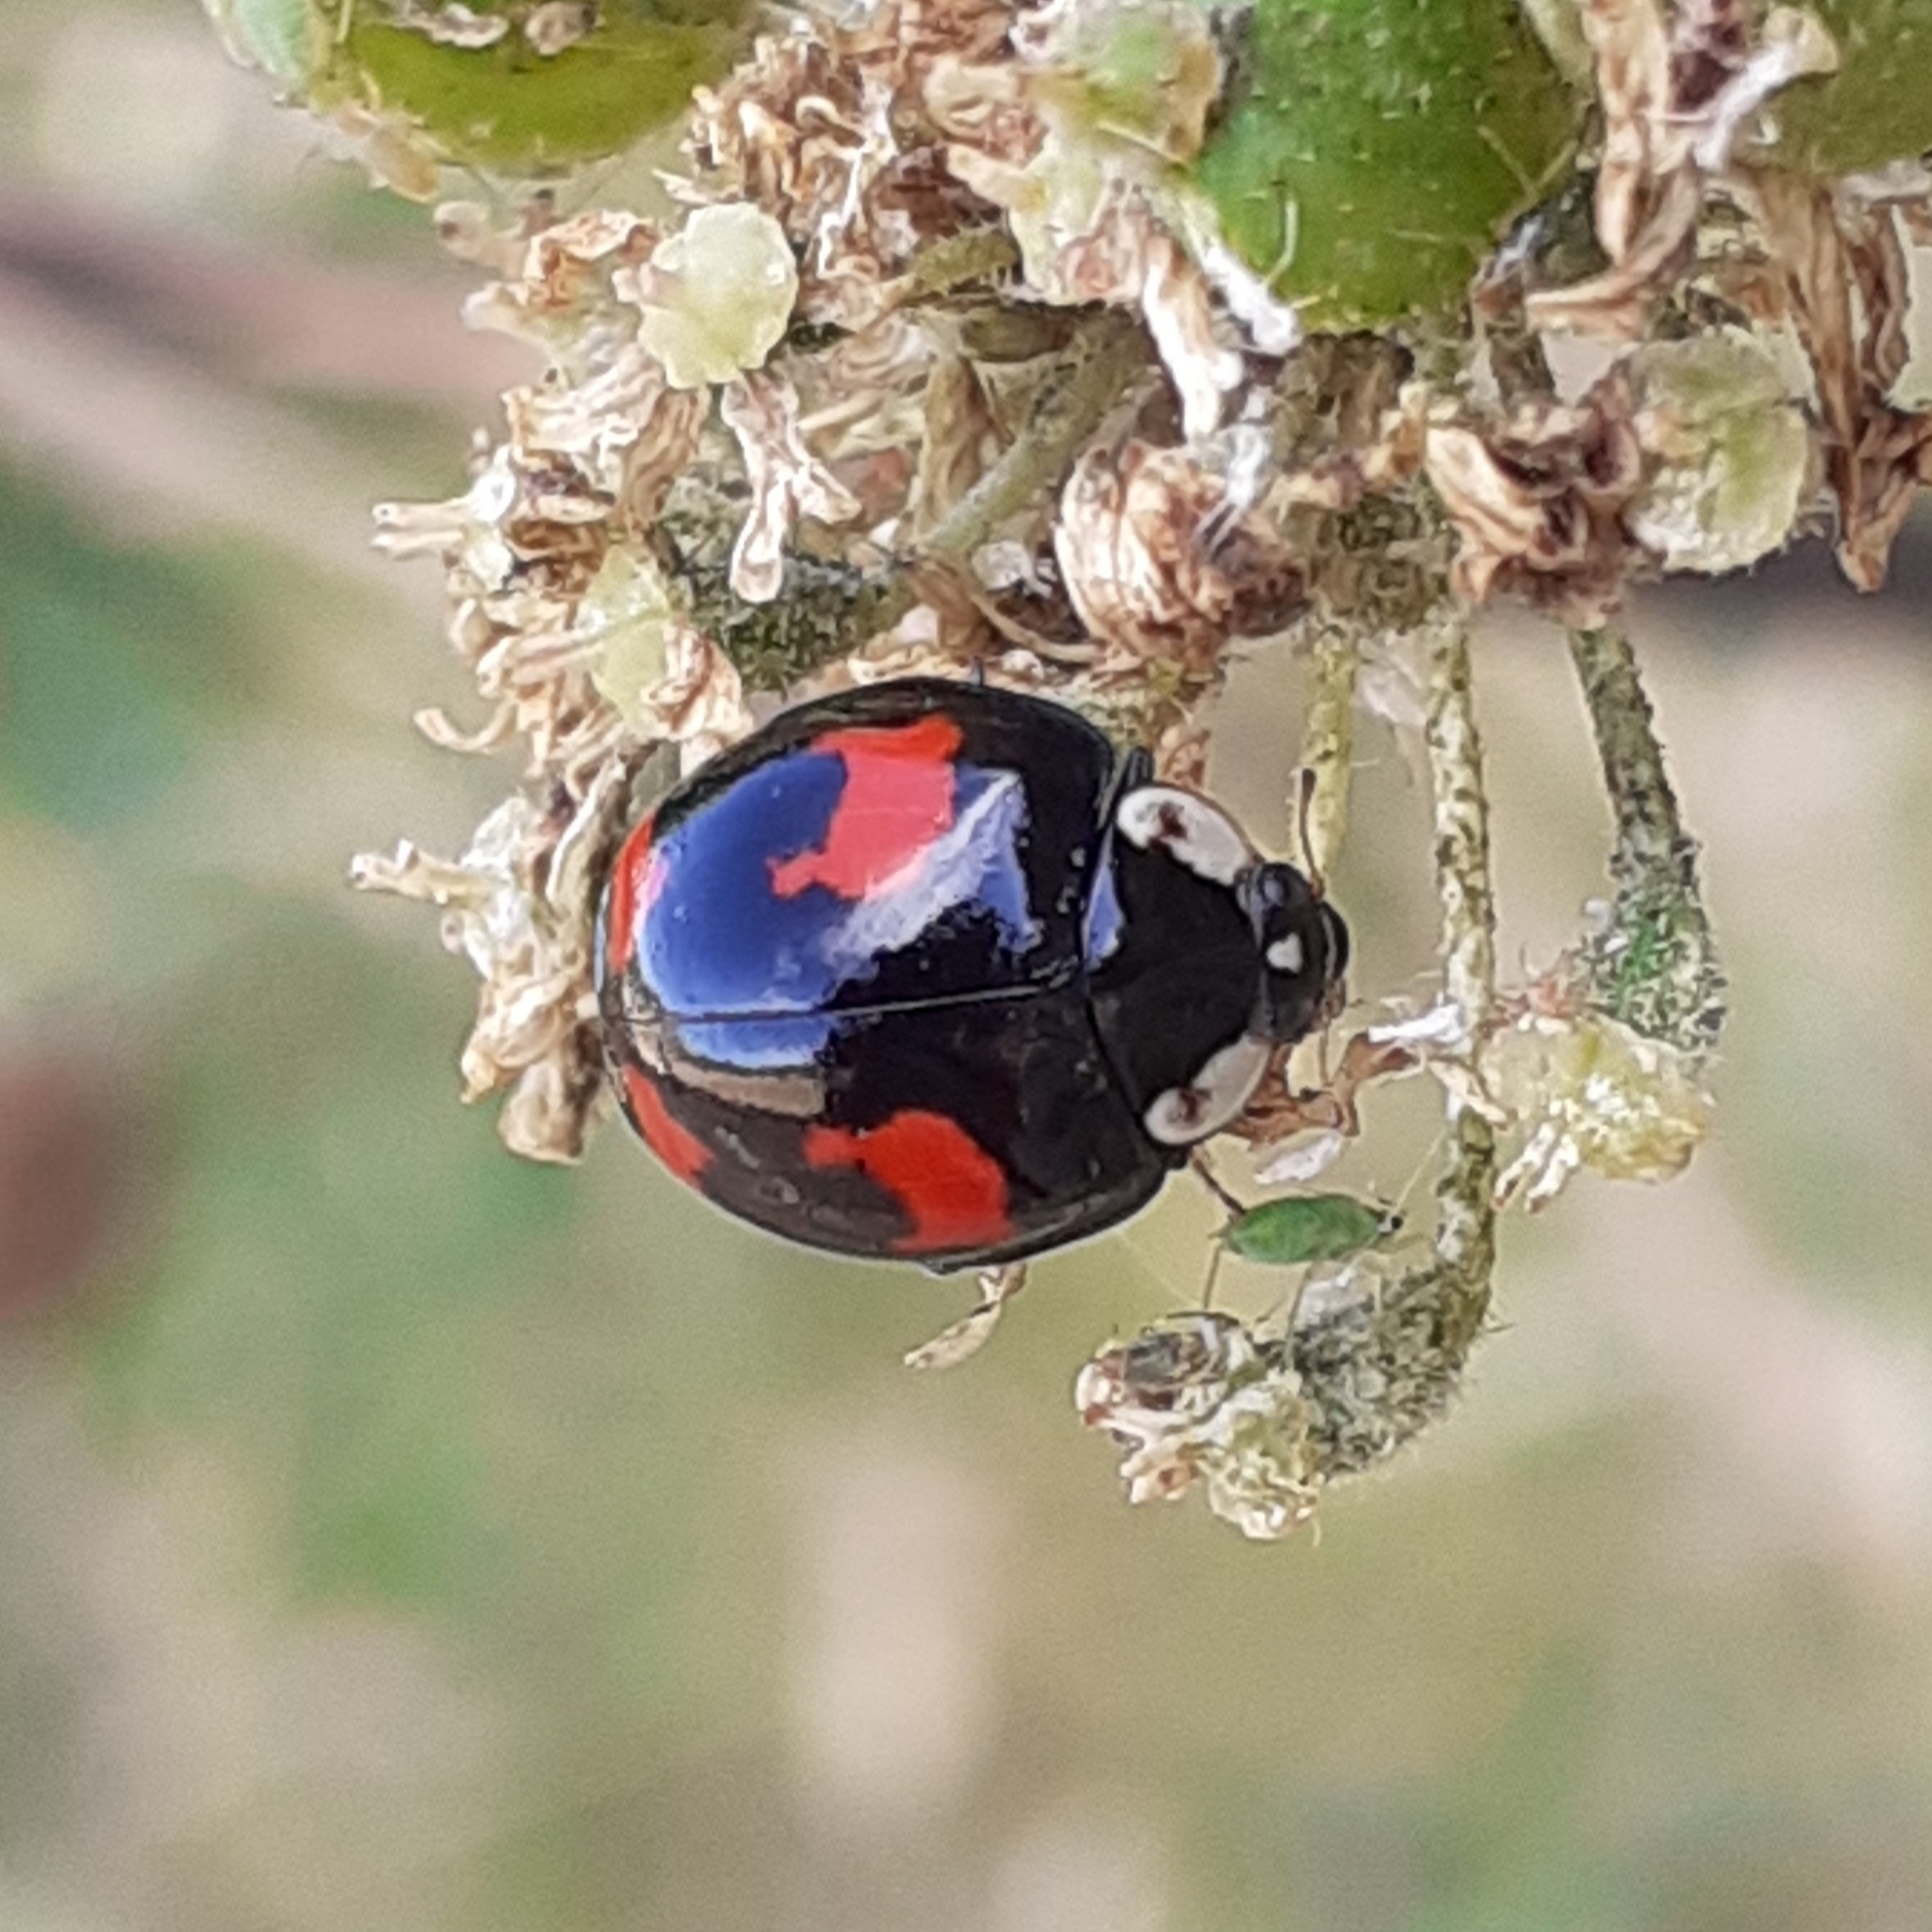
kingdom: Animalia
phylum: Arthropoda
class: Insecta
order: Coleoptera
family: Coccinellidae
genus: Harmonia
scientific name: Harmonia axyridis
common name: Harlequin ladybird
